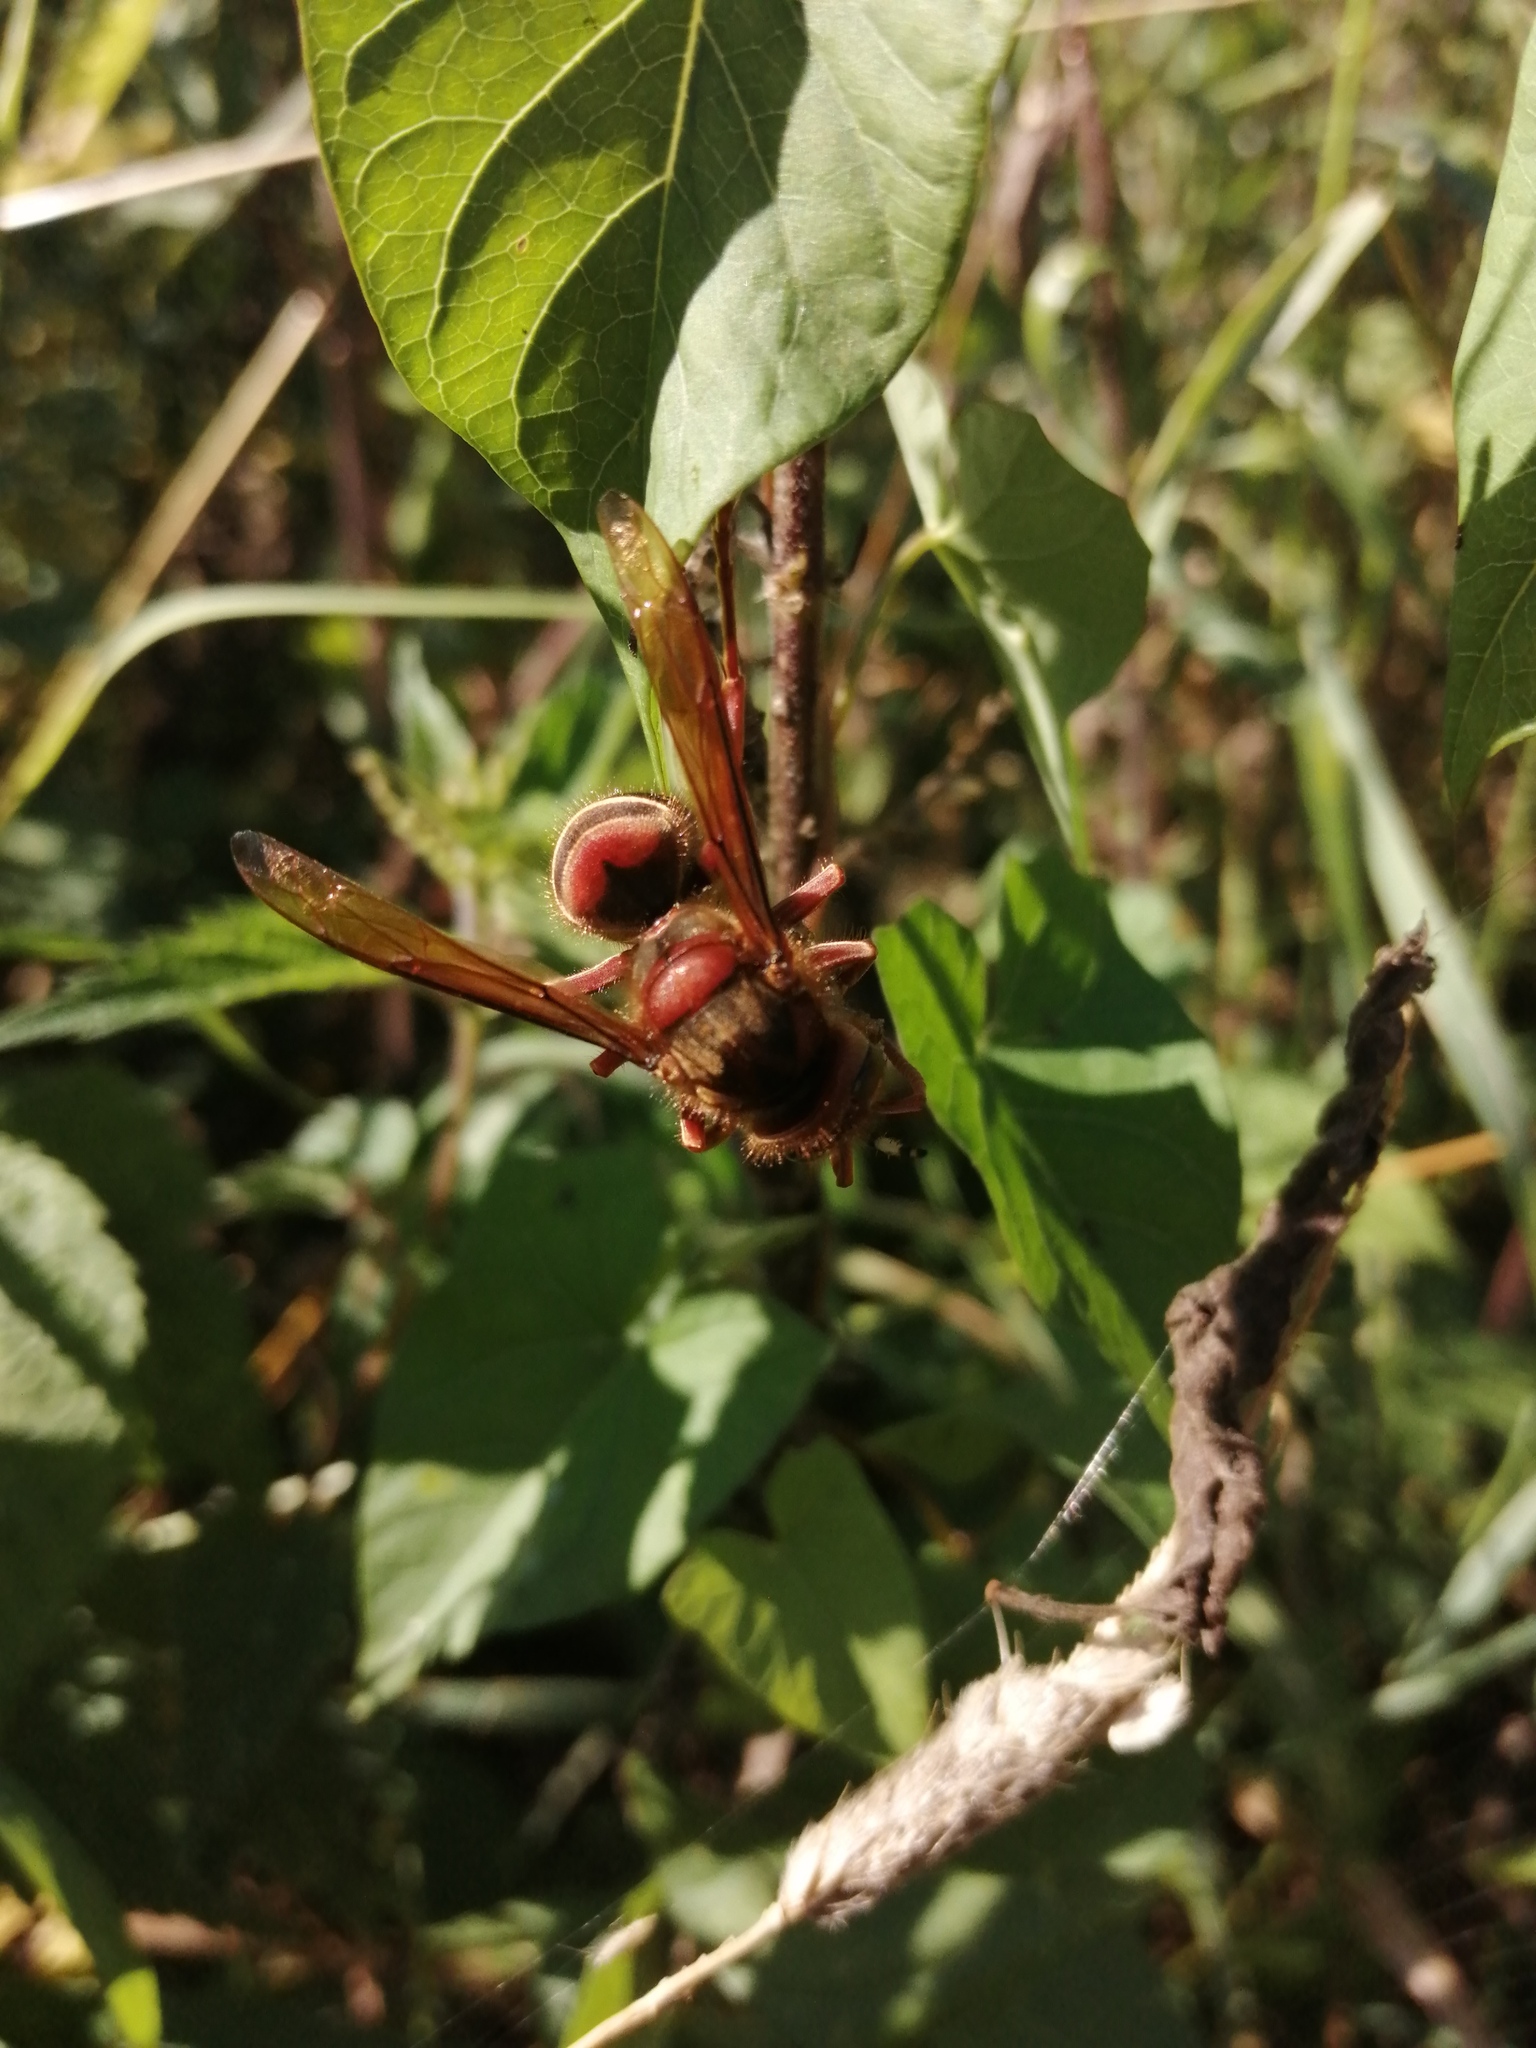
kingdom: Animalia
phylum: Arthropoda
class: Insecta
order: Hymenoptera
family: Vespidae
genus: Vespa
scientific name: Vespa crabro
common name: Hornet
